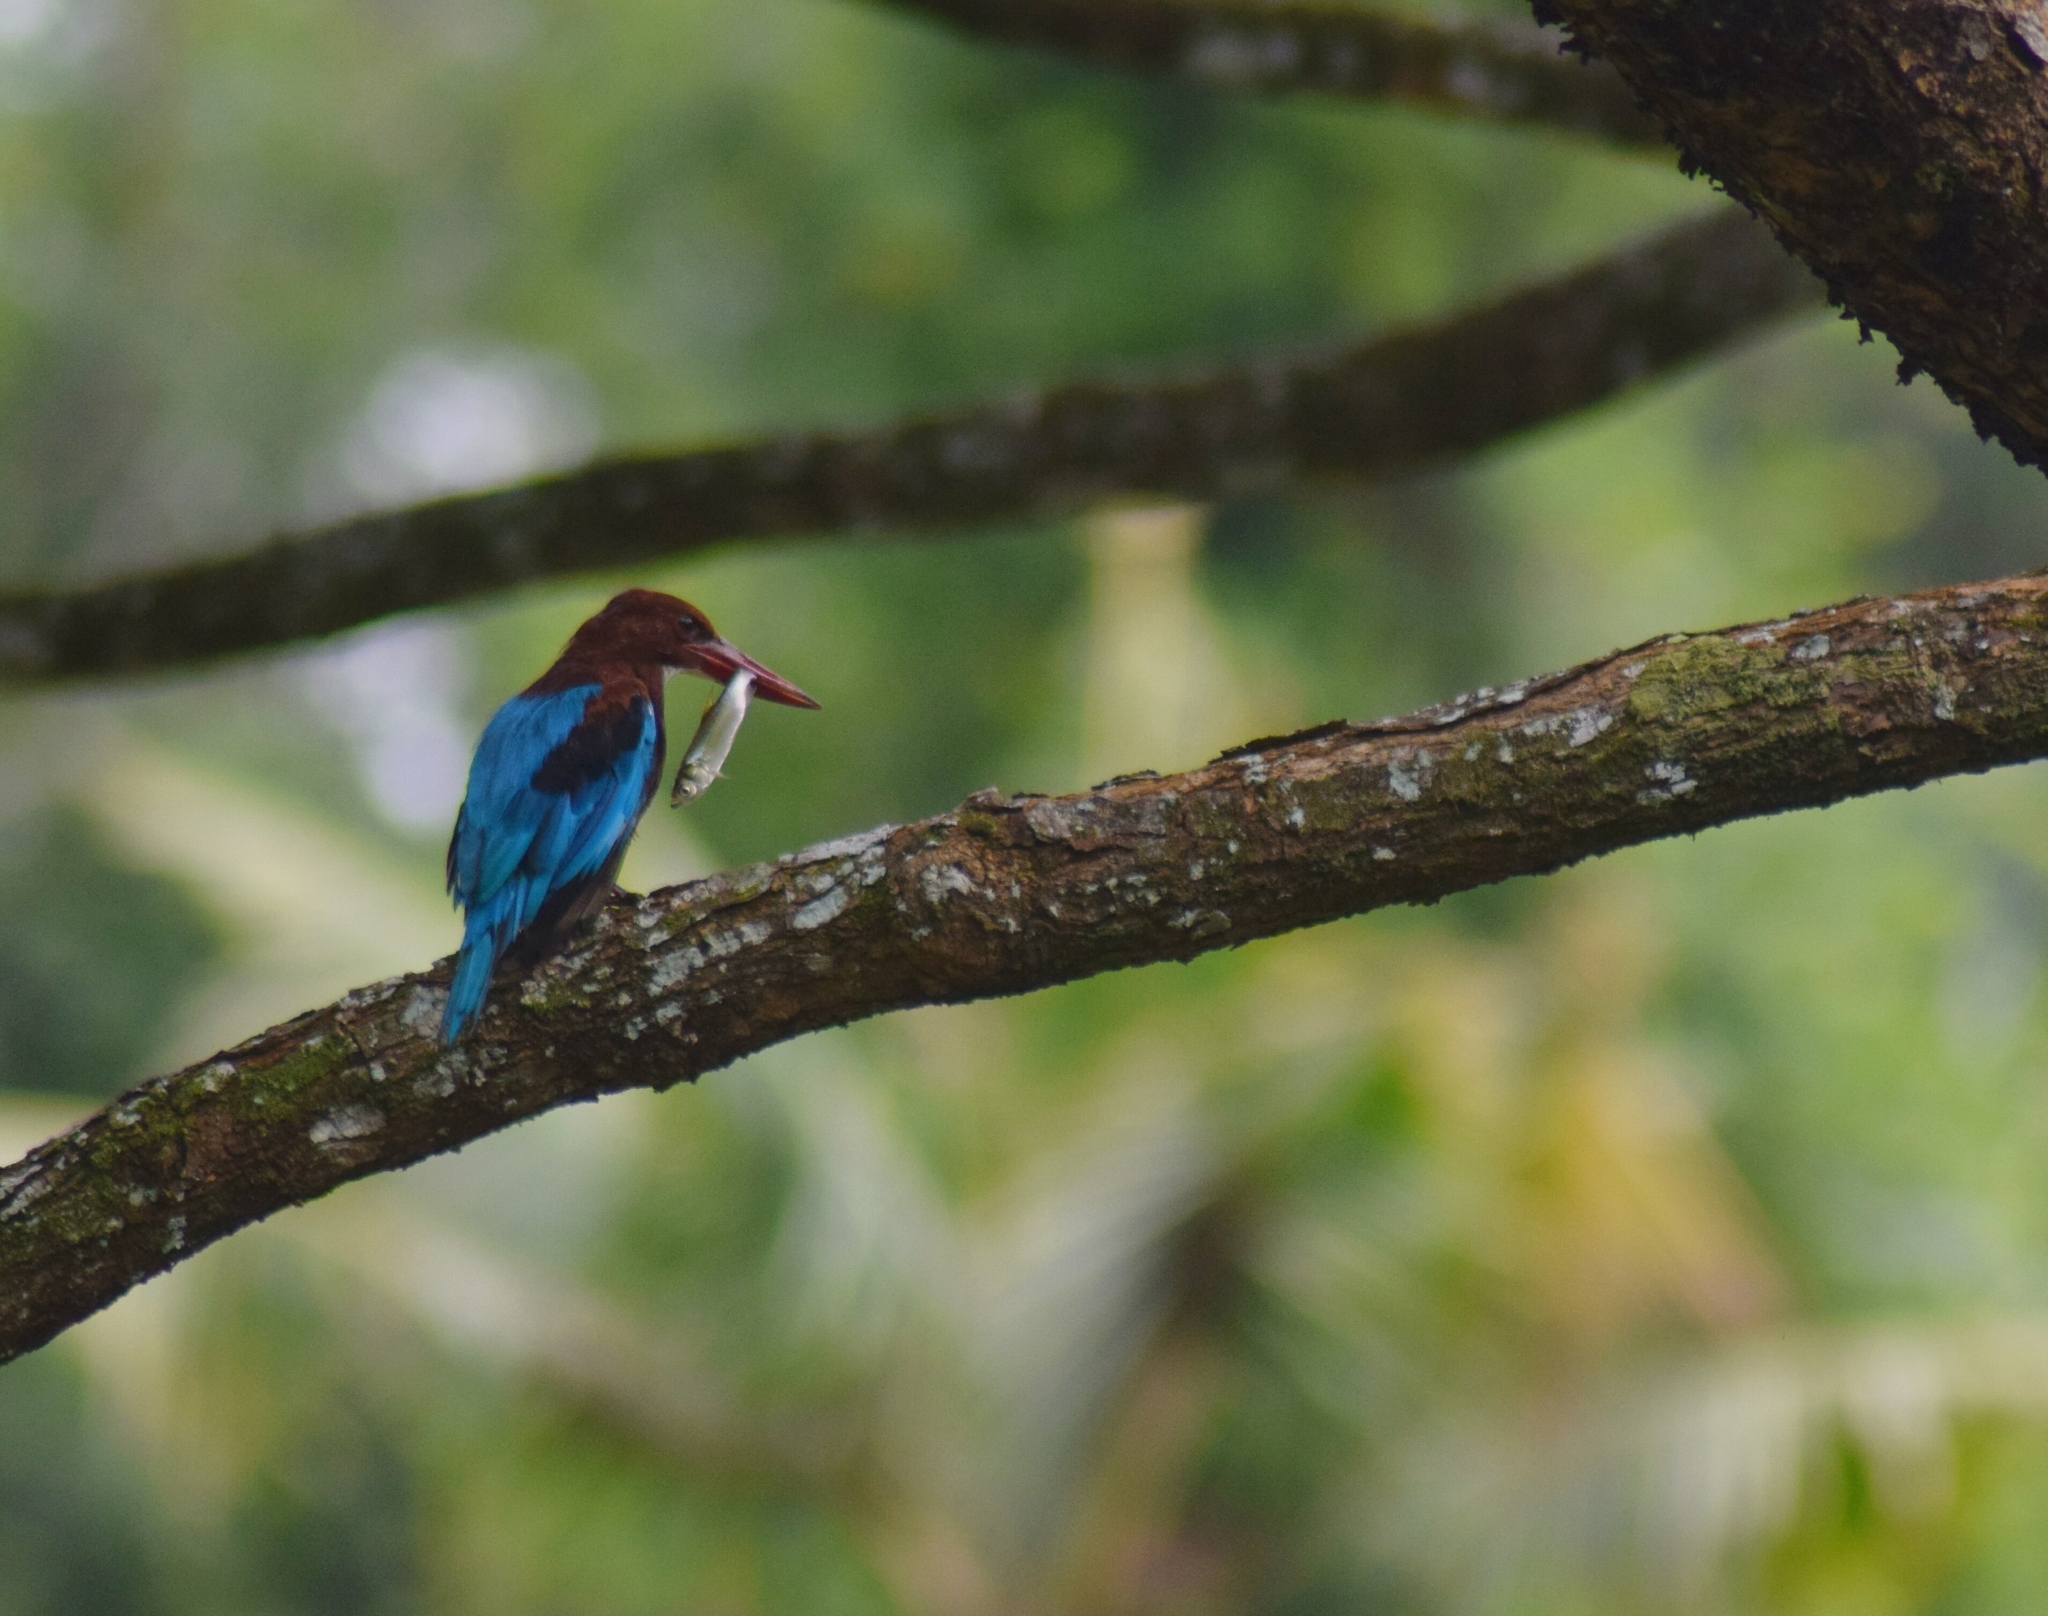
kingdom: Animalia
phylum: Chordata
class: Aves
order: Coraciiformes
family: Alcedinidae
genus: Halcyon
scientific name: Halcyon smyrnensis
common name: White-throated kingfisher
